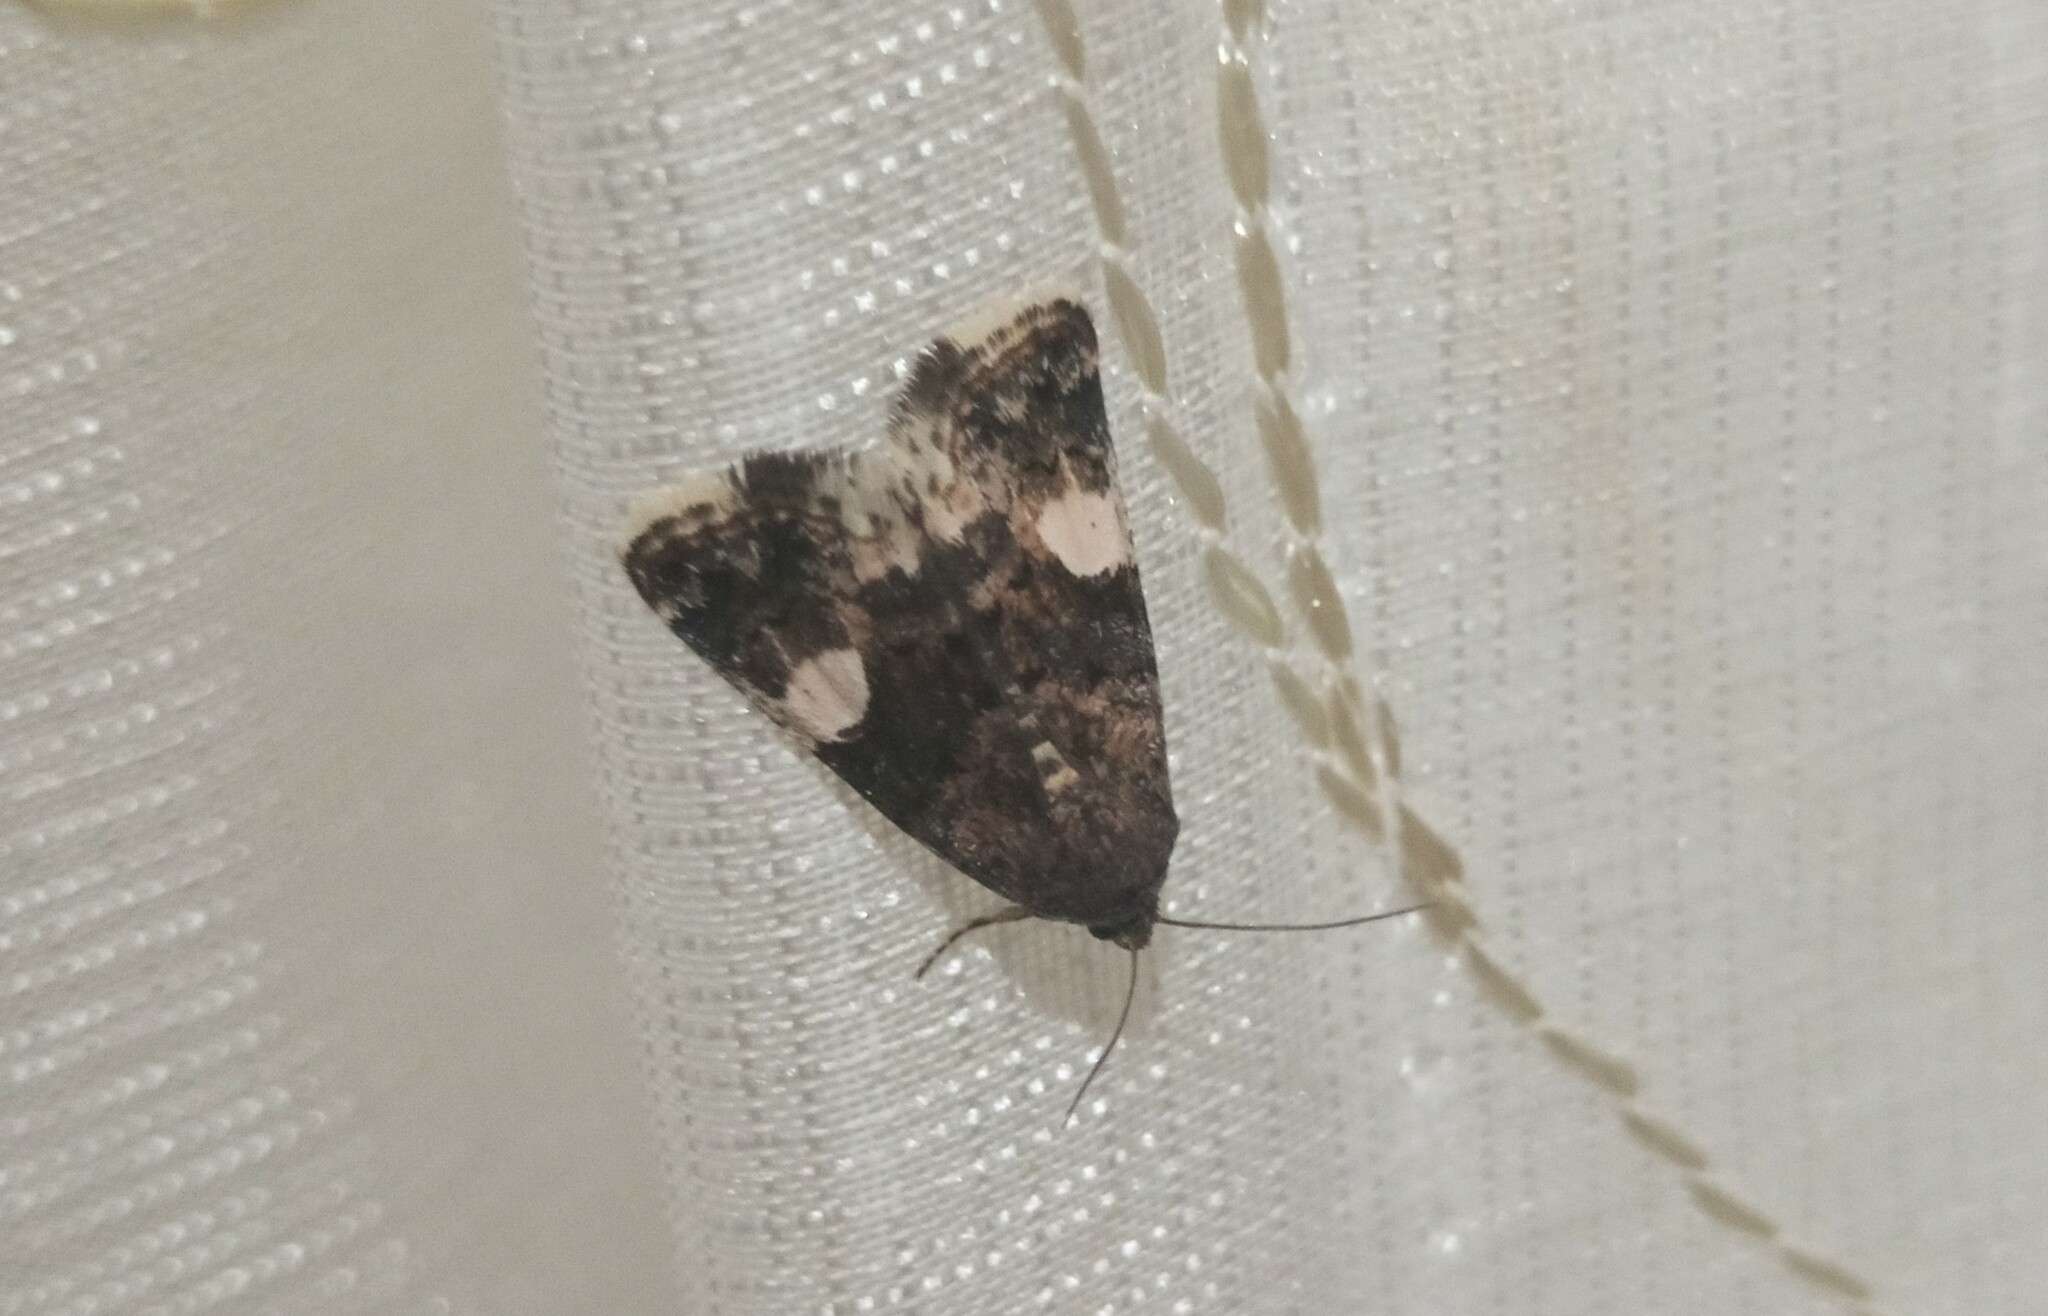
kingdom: Animalia
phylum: Arthropoda
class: Insecta
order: Lepidoptera
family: Erebidae
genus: Tyta
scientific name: Tyta luctuosa
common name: Four-spotted
